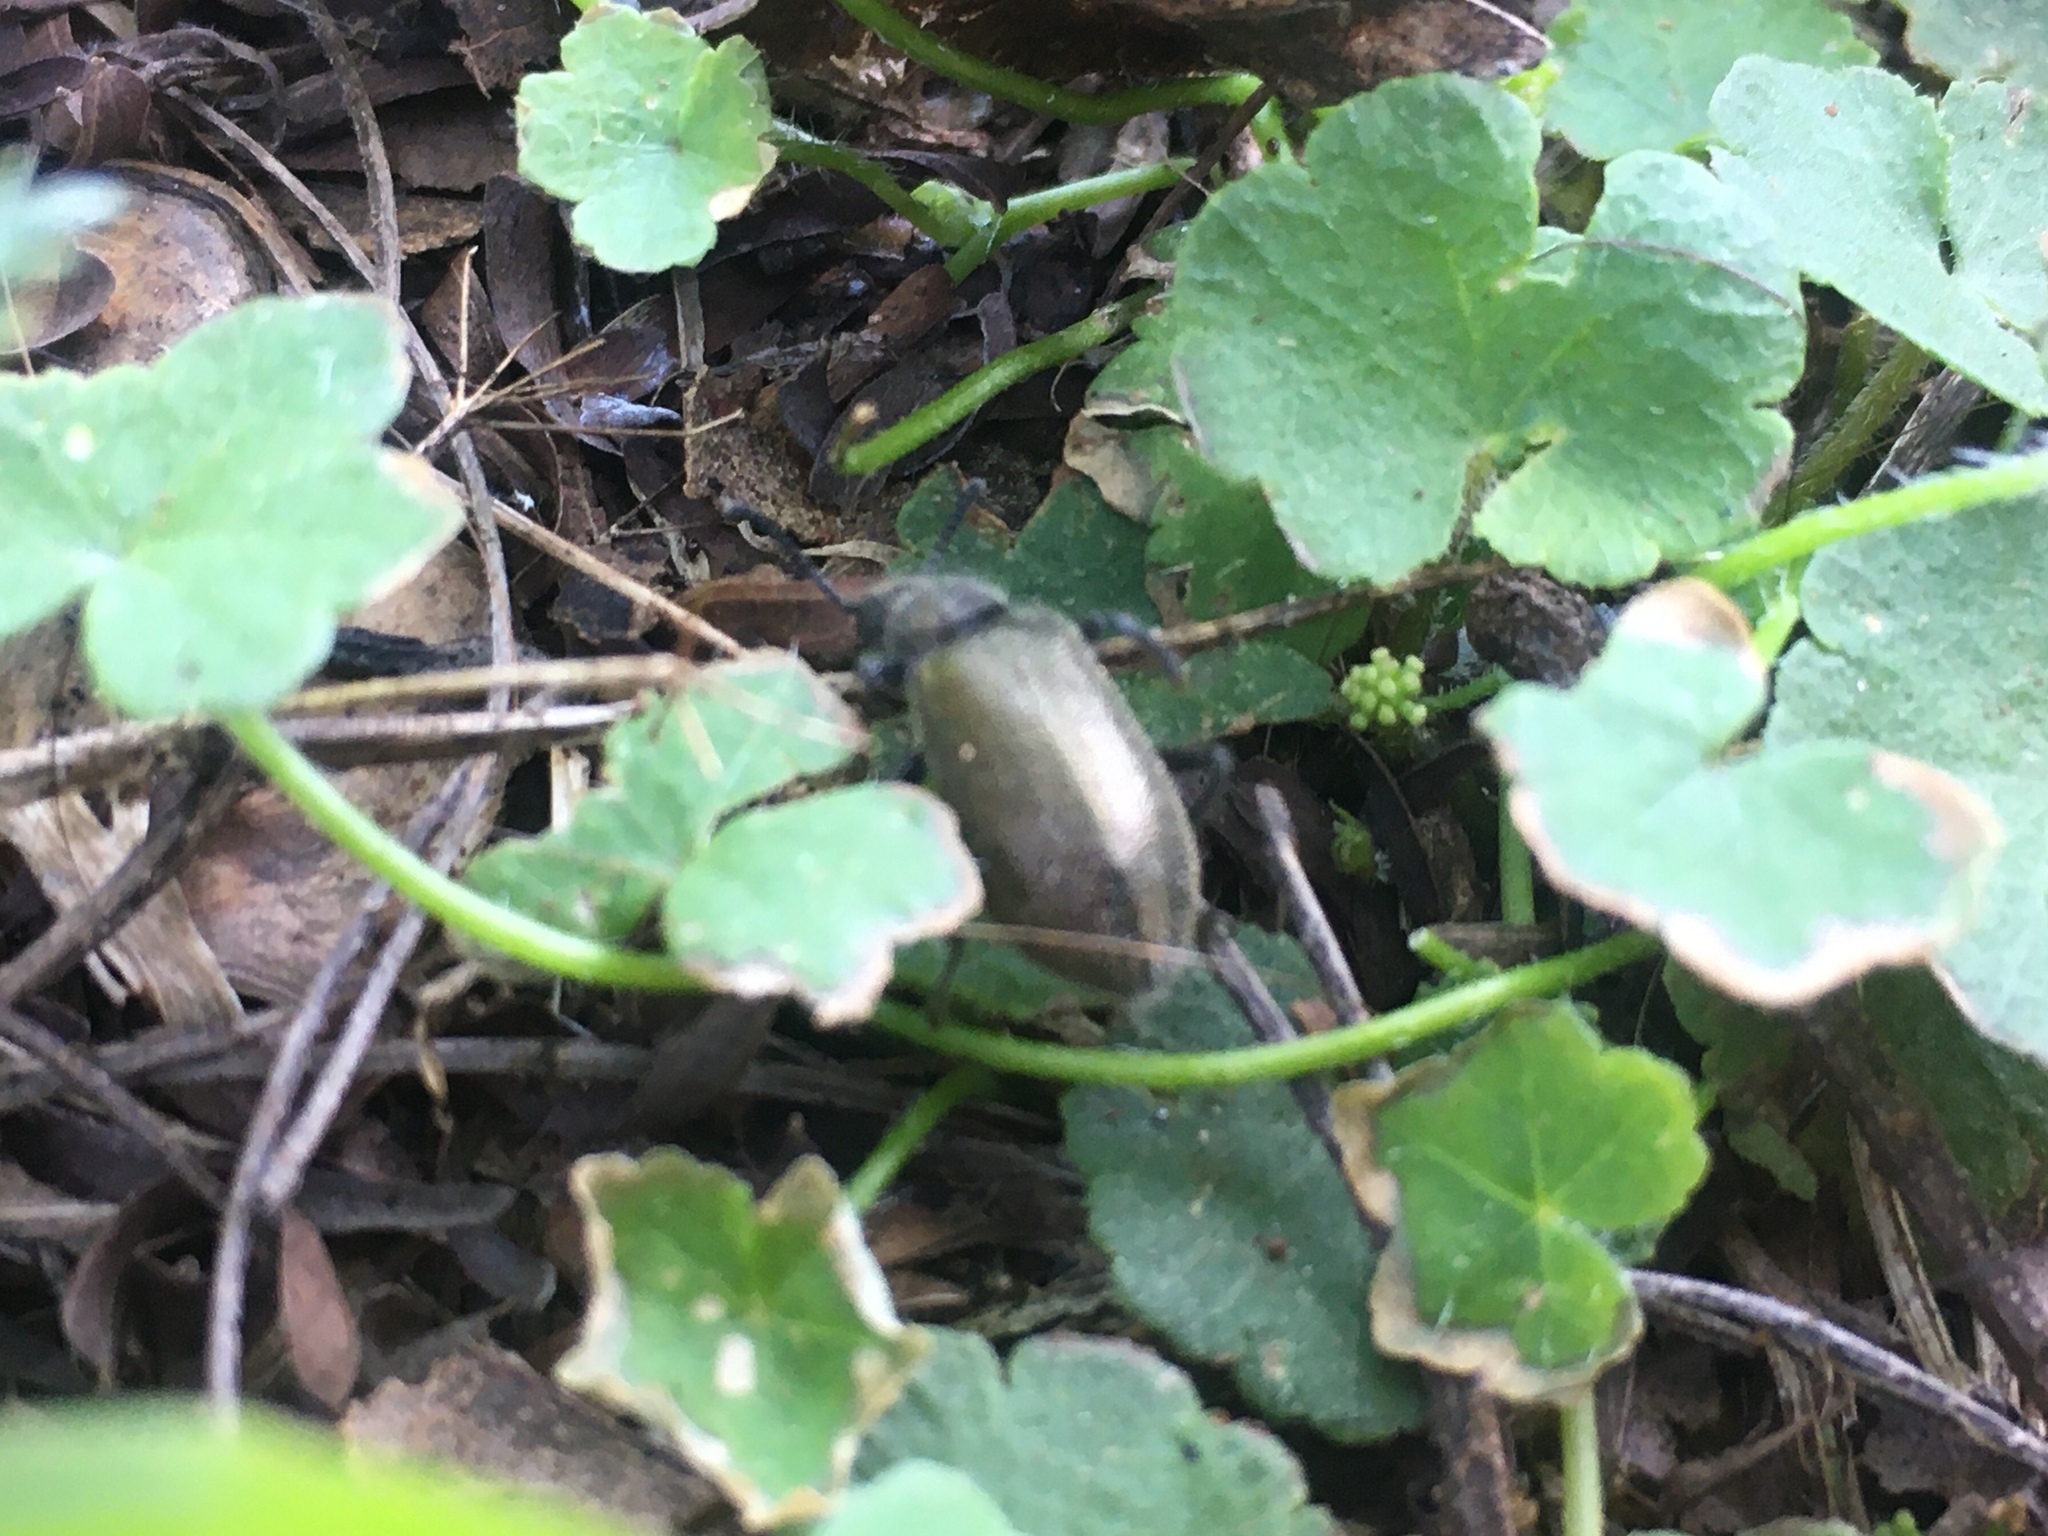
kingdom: Animalia
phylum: Arthropoda
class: Insecta
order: Coleoptera
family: Tenebrionidae
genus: Lagria
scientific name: Lagria villosa
